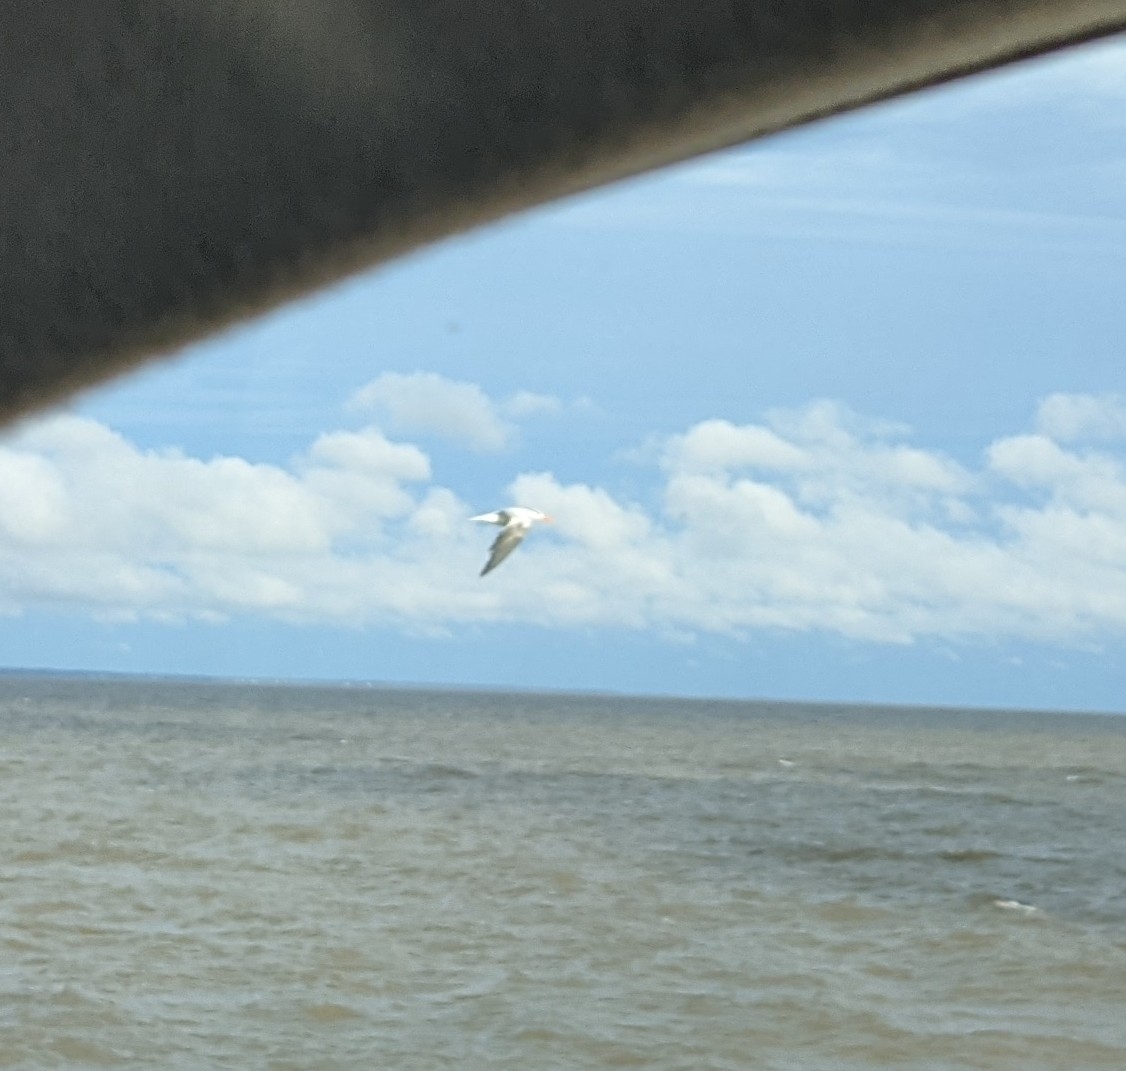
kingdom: Animalia
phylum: Chordata
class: Aves
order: Charadriiformes
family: Laridae
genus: Thalasseus
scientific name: Thalasseus maximus
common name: Royal tern
